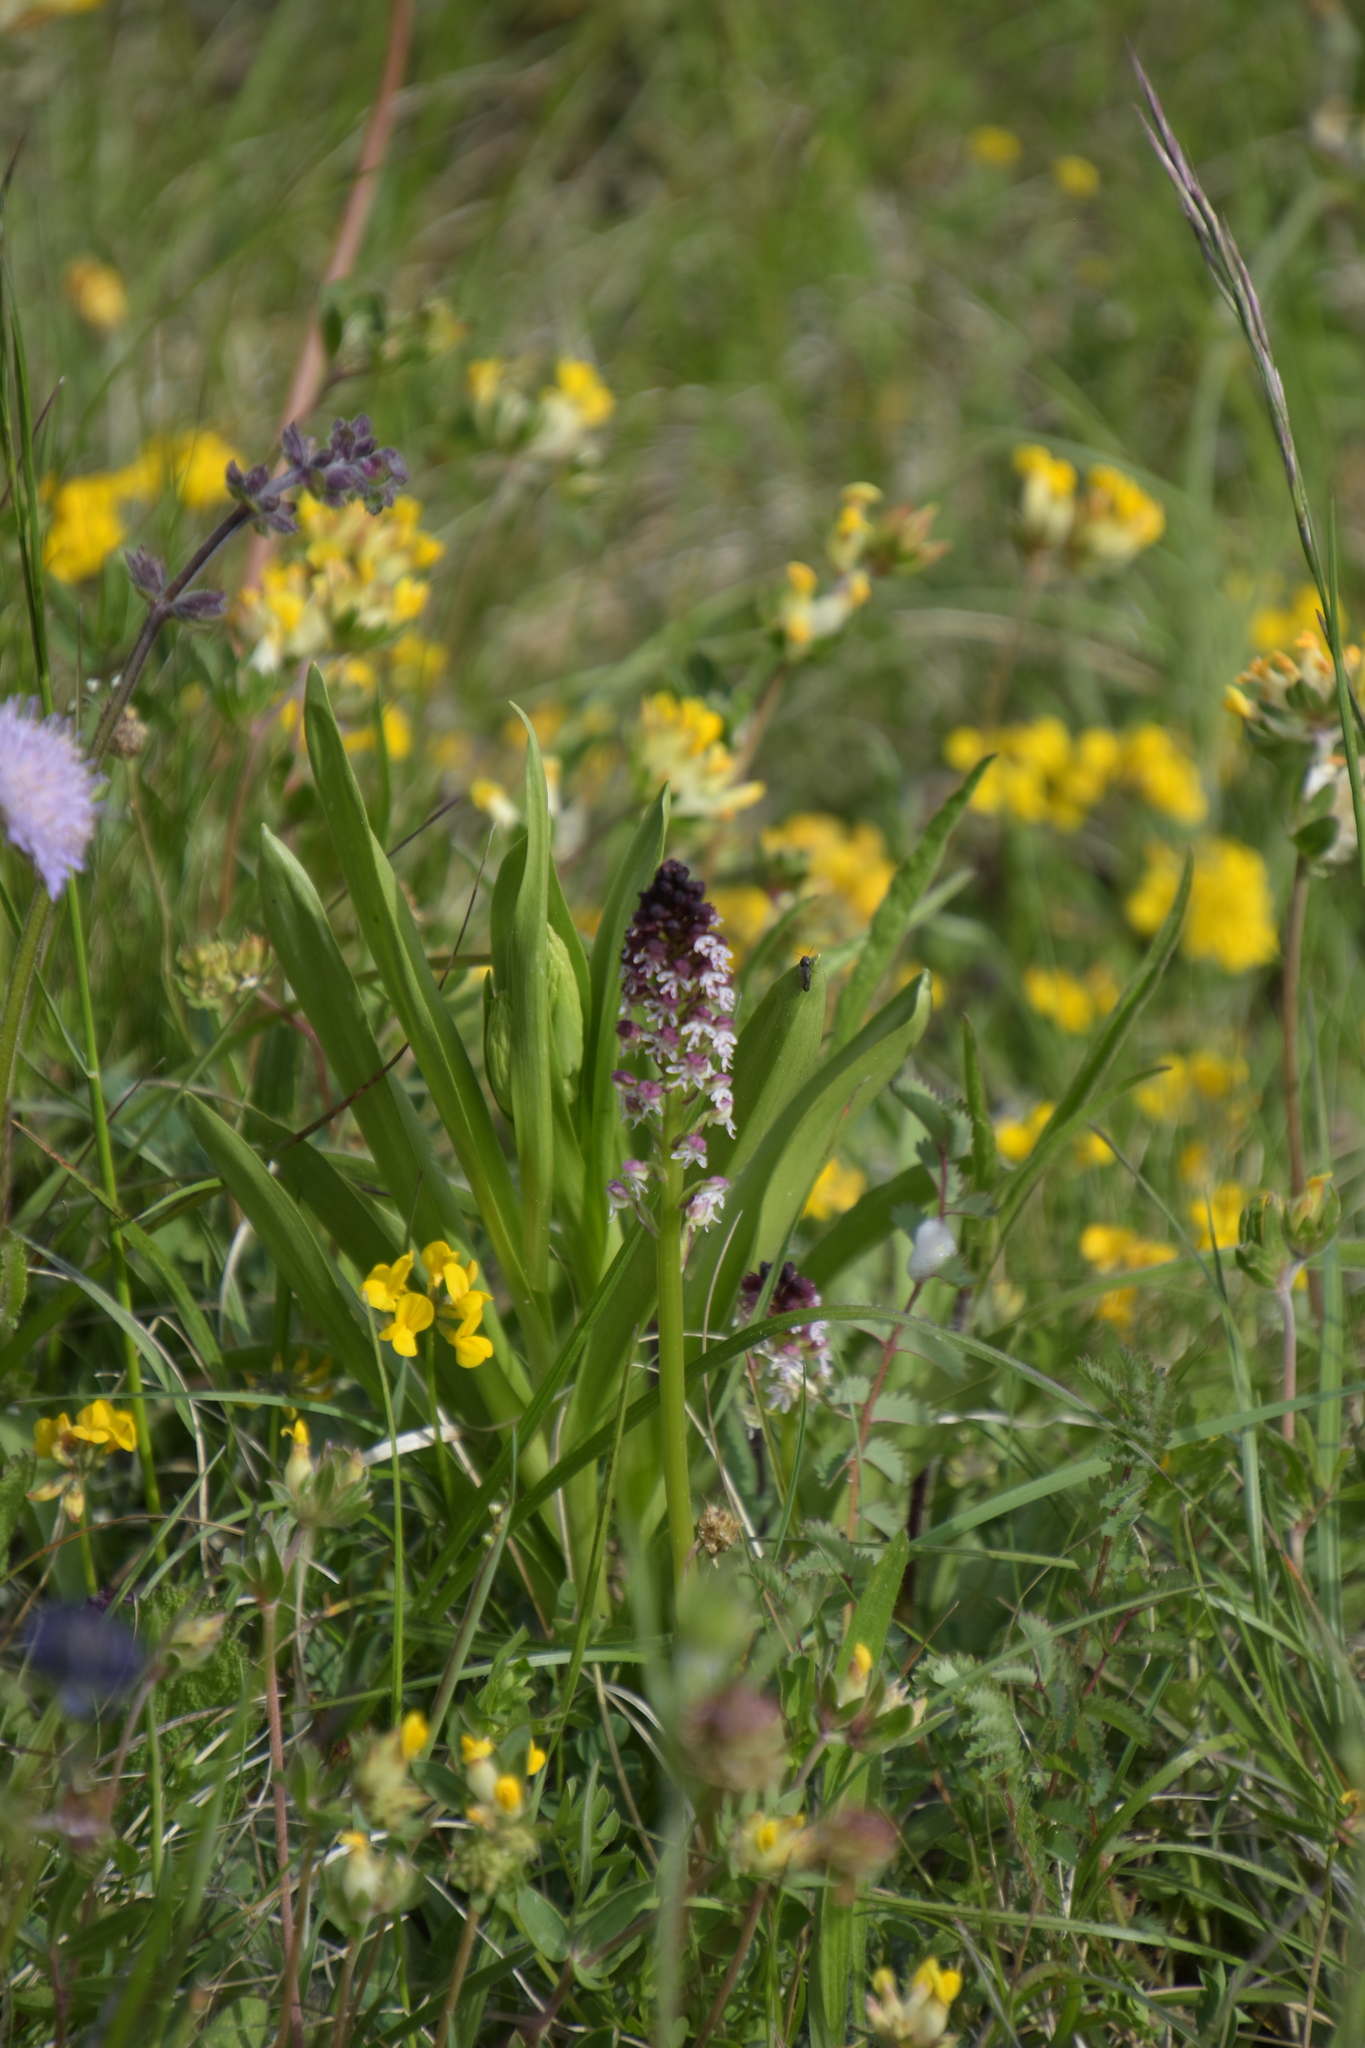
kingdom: Plantae
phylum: Tracheophyta
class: Liliopsida
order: Asparagales
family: Orchidaceae
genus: Neotinea
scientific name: Neotinea ustulata
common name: Burnt orchid
